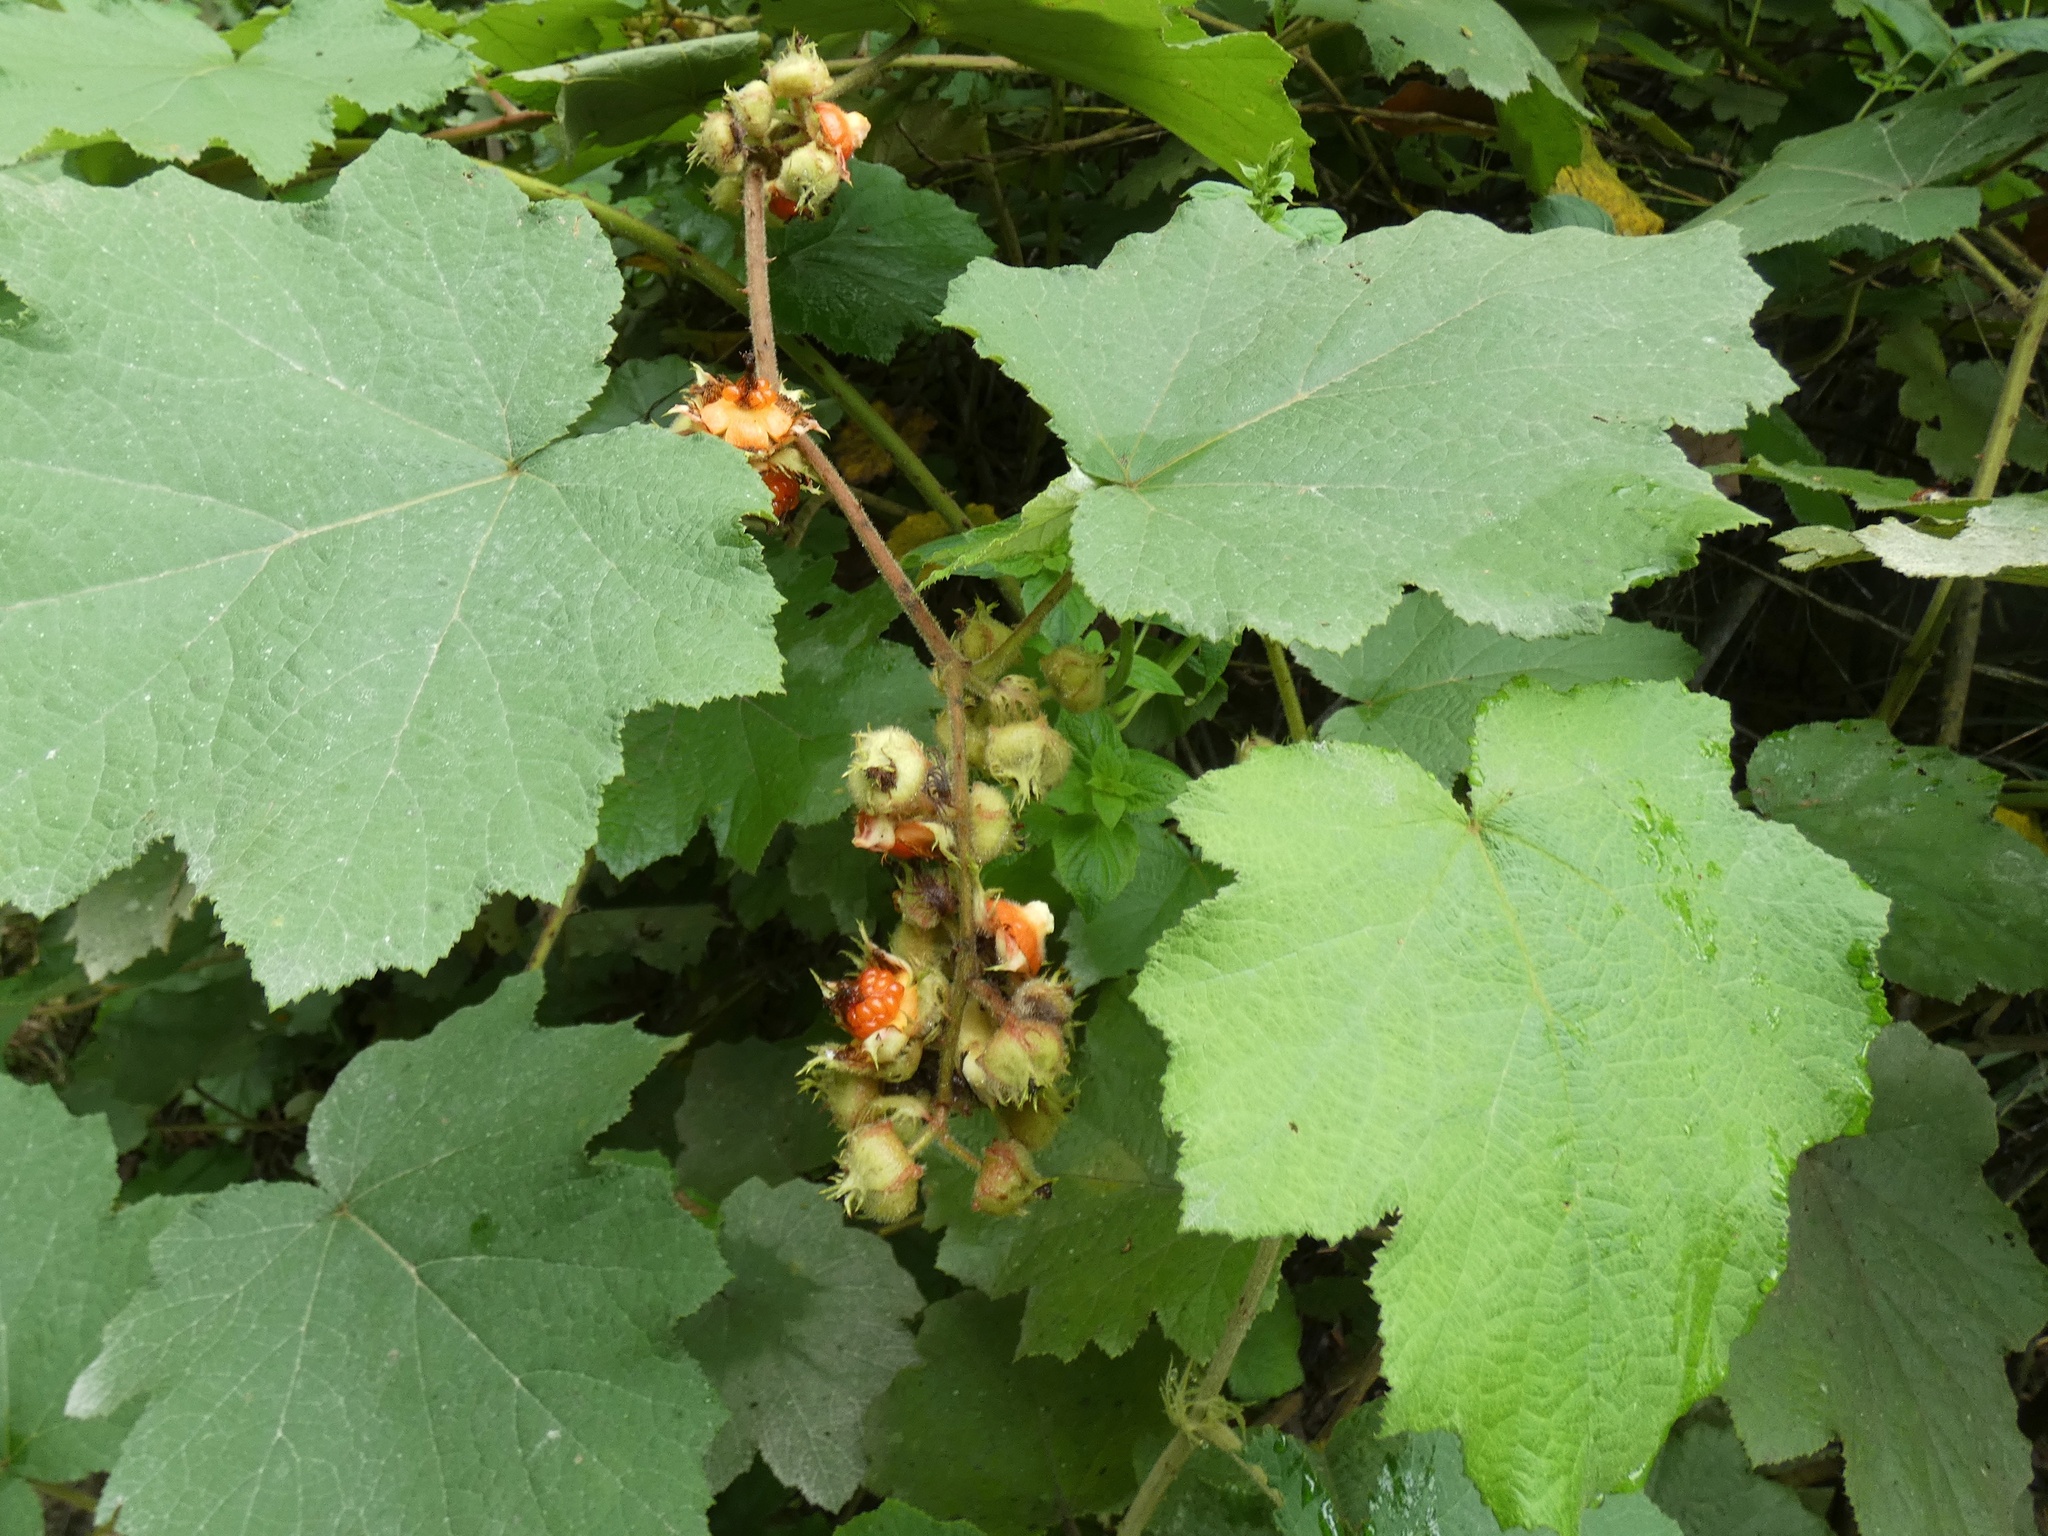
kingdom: Plantae
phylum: Tracheophyta
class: Magnoliopsida
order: Rosales
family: Rosaceae
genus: Rubus
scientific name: Rubus alceifolius
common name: Giant bramble
